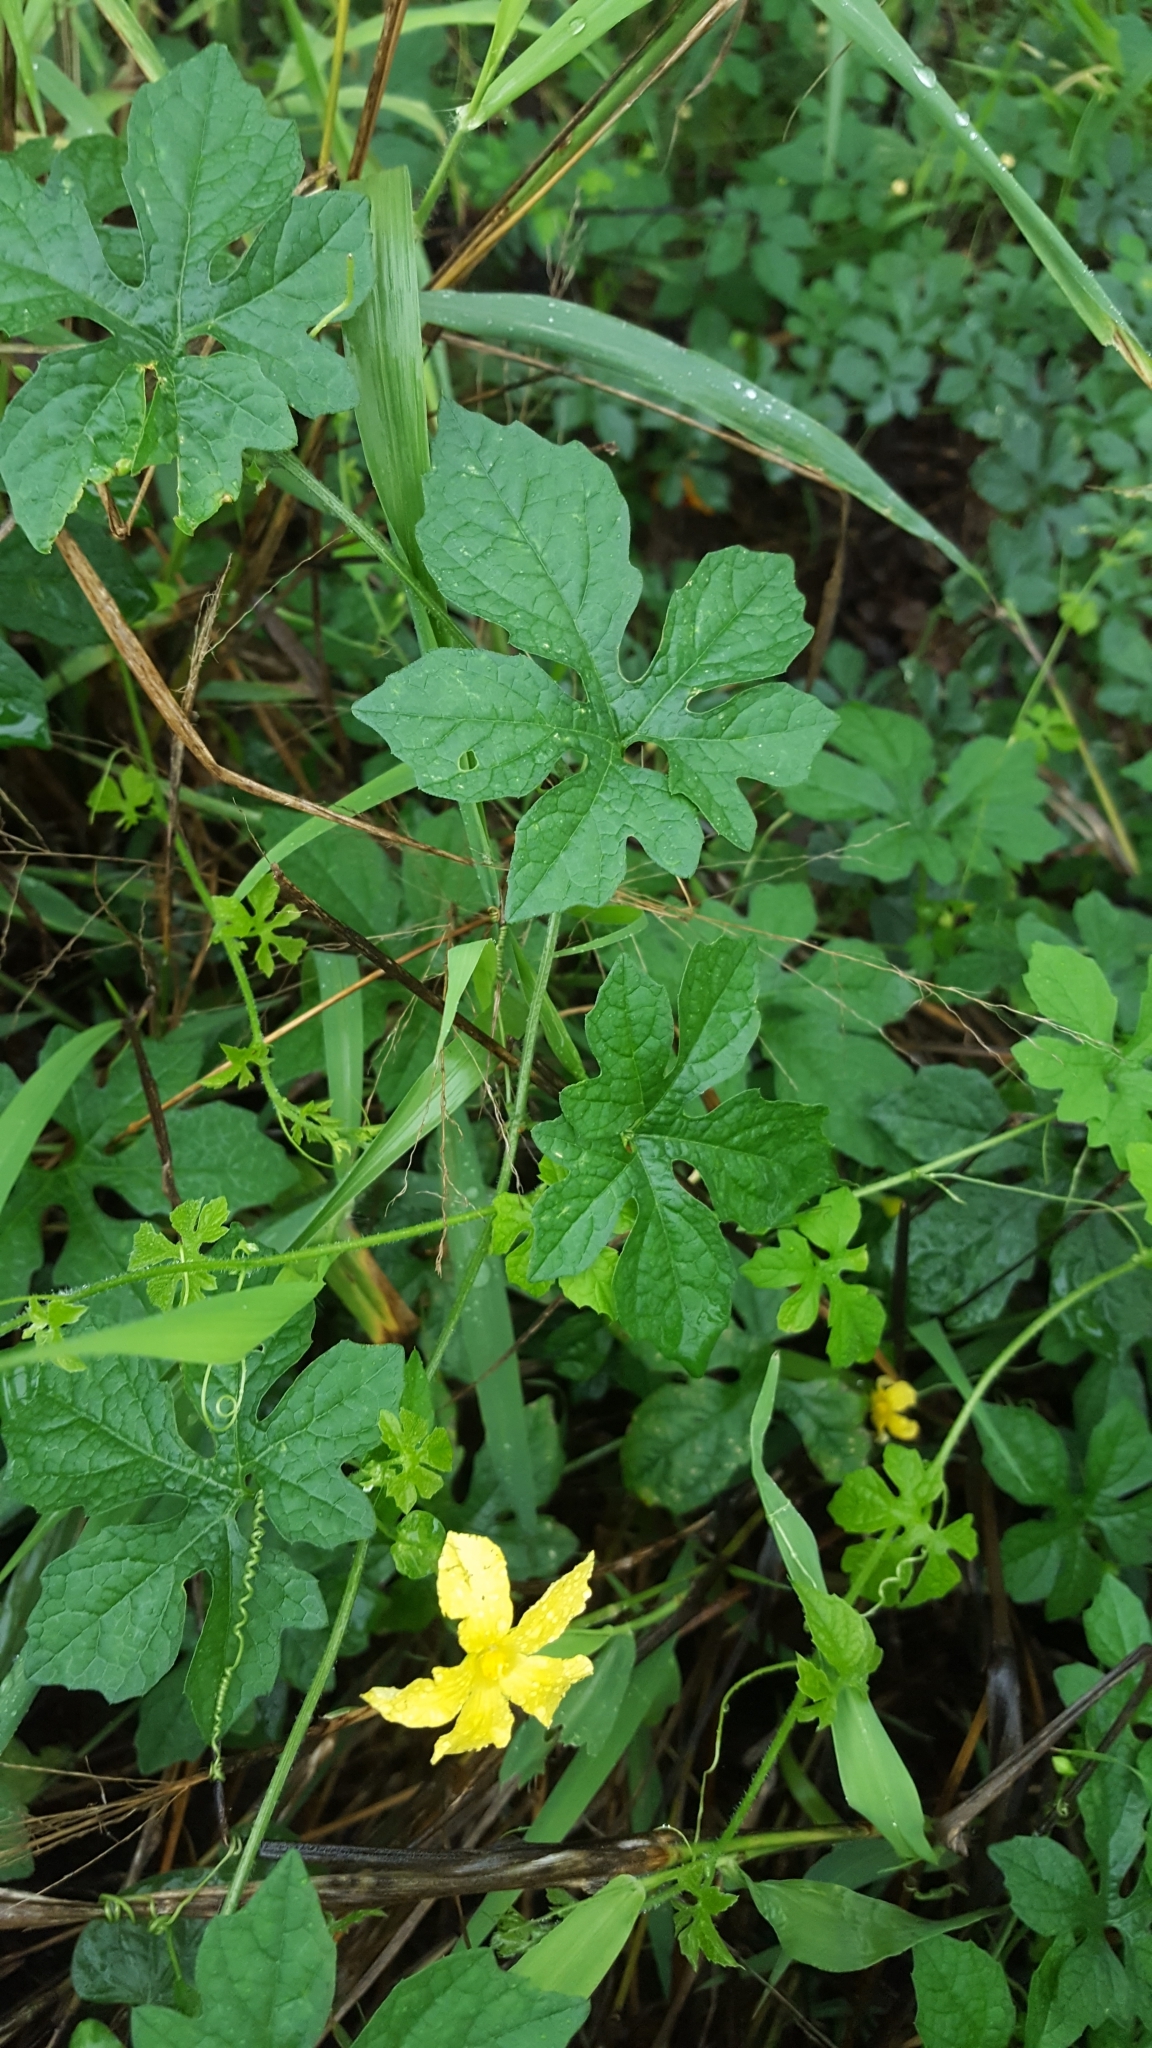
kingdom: Plantae
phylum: Tracheophyta
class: Magnoliopsida
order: Cucurbitales
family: Cucurbitaceae
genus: Momordica
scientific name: Momordica charantia
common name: Balsampear
